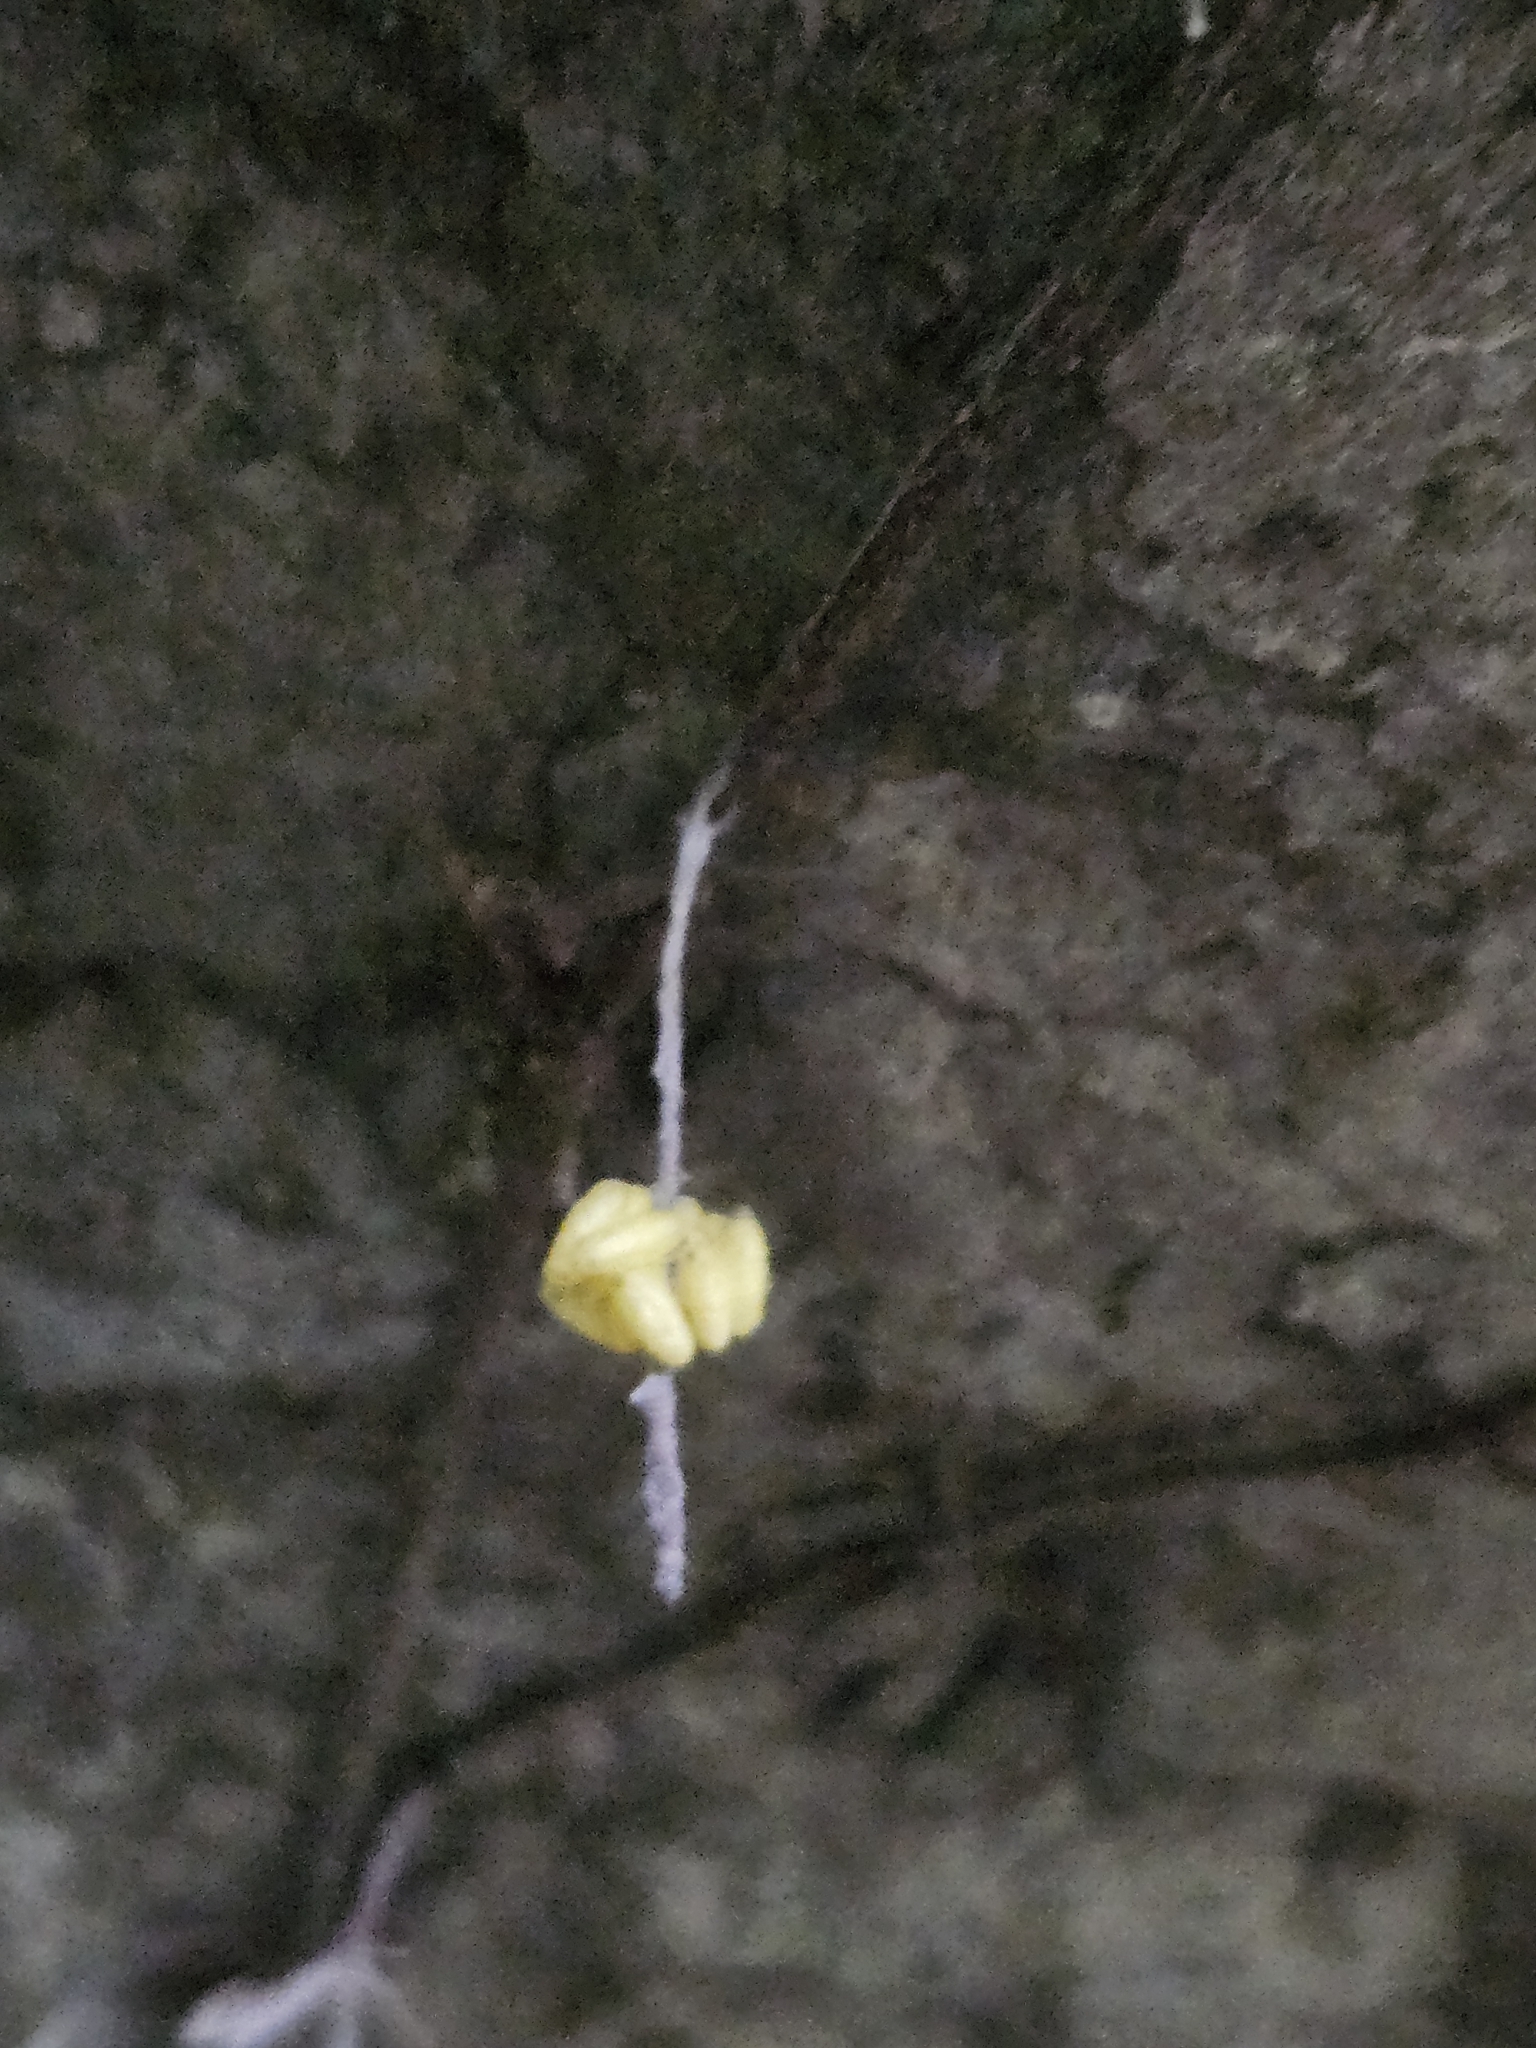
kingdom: Plantae
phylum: Tracheophyta
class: Magnoliopsida
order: Rosales
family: Moraceae
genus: Ficus
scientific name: Ficus sarmentosa
